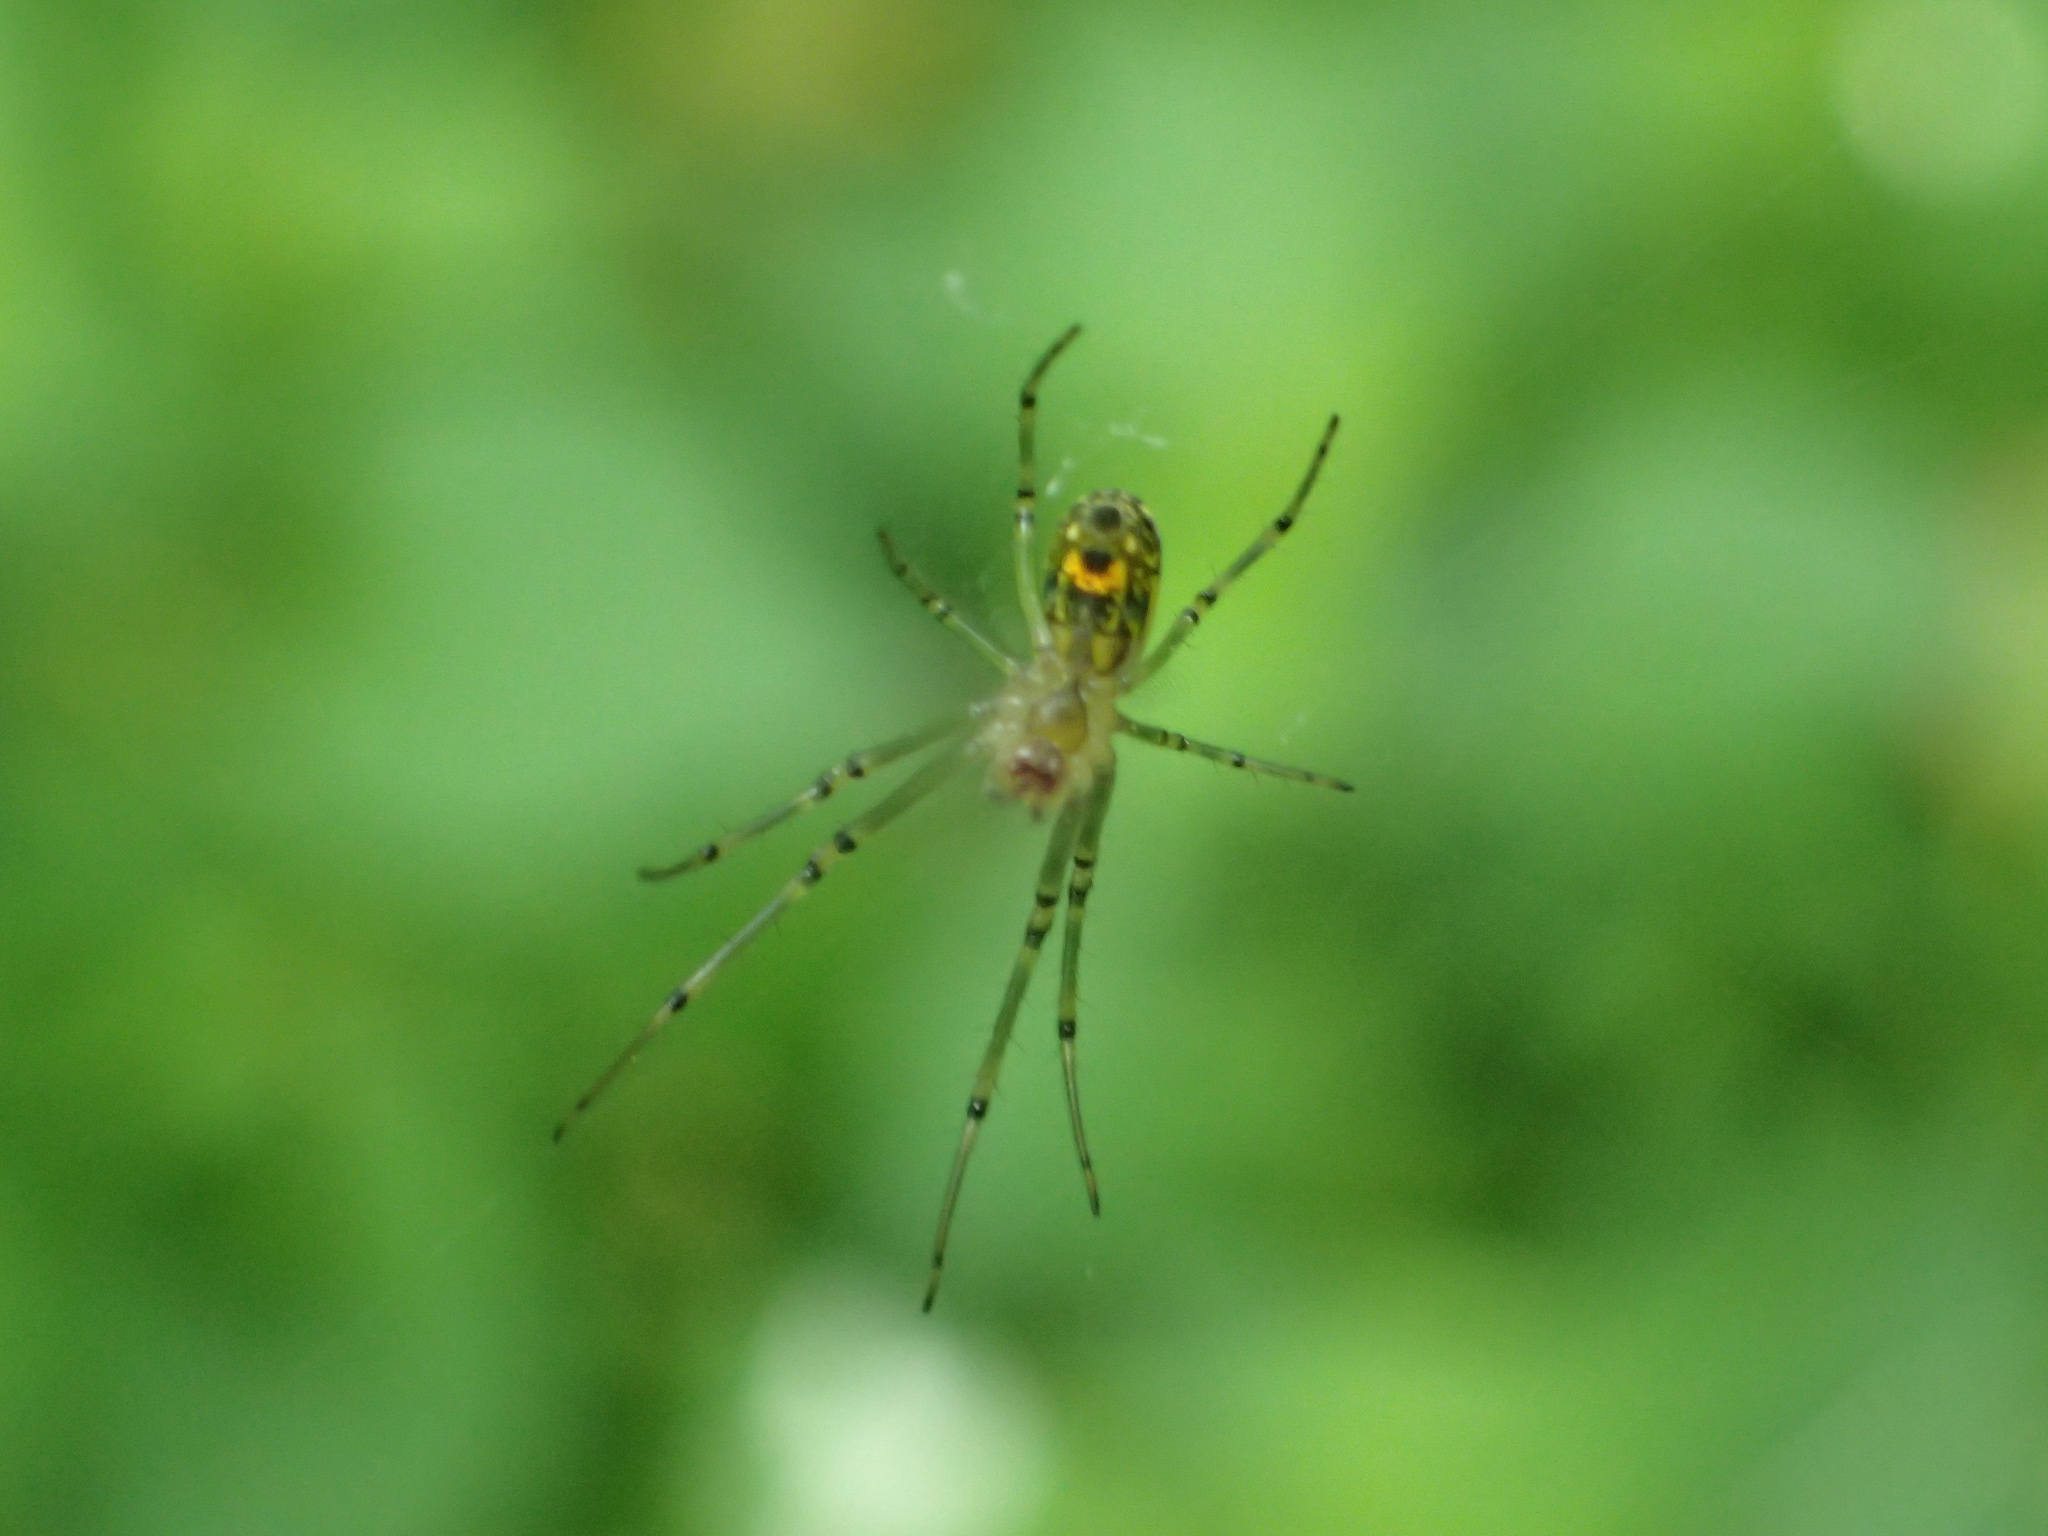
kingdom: Animalia
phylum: Arthropoda
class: Arachnida
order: Araneae
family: Tetragnathidae
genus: Leucauge
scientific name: Leucauge venusta
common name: Longjawed orb weavers
